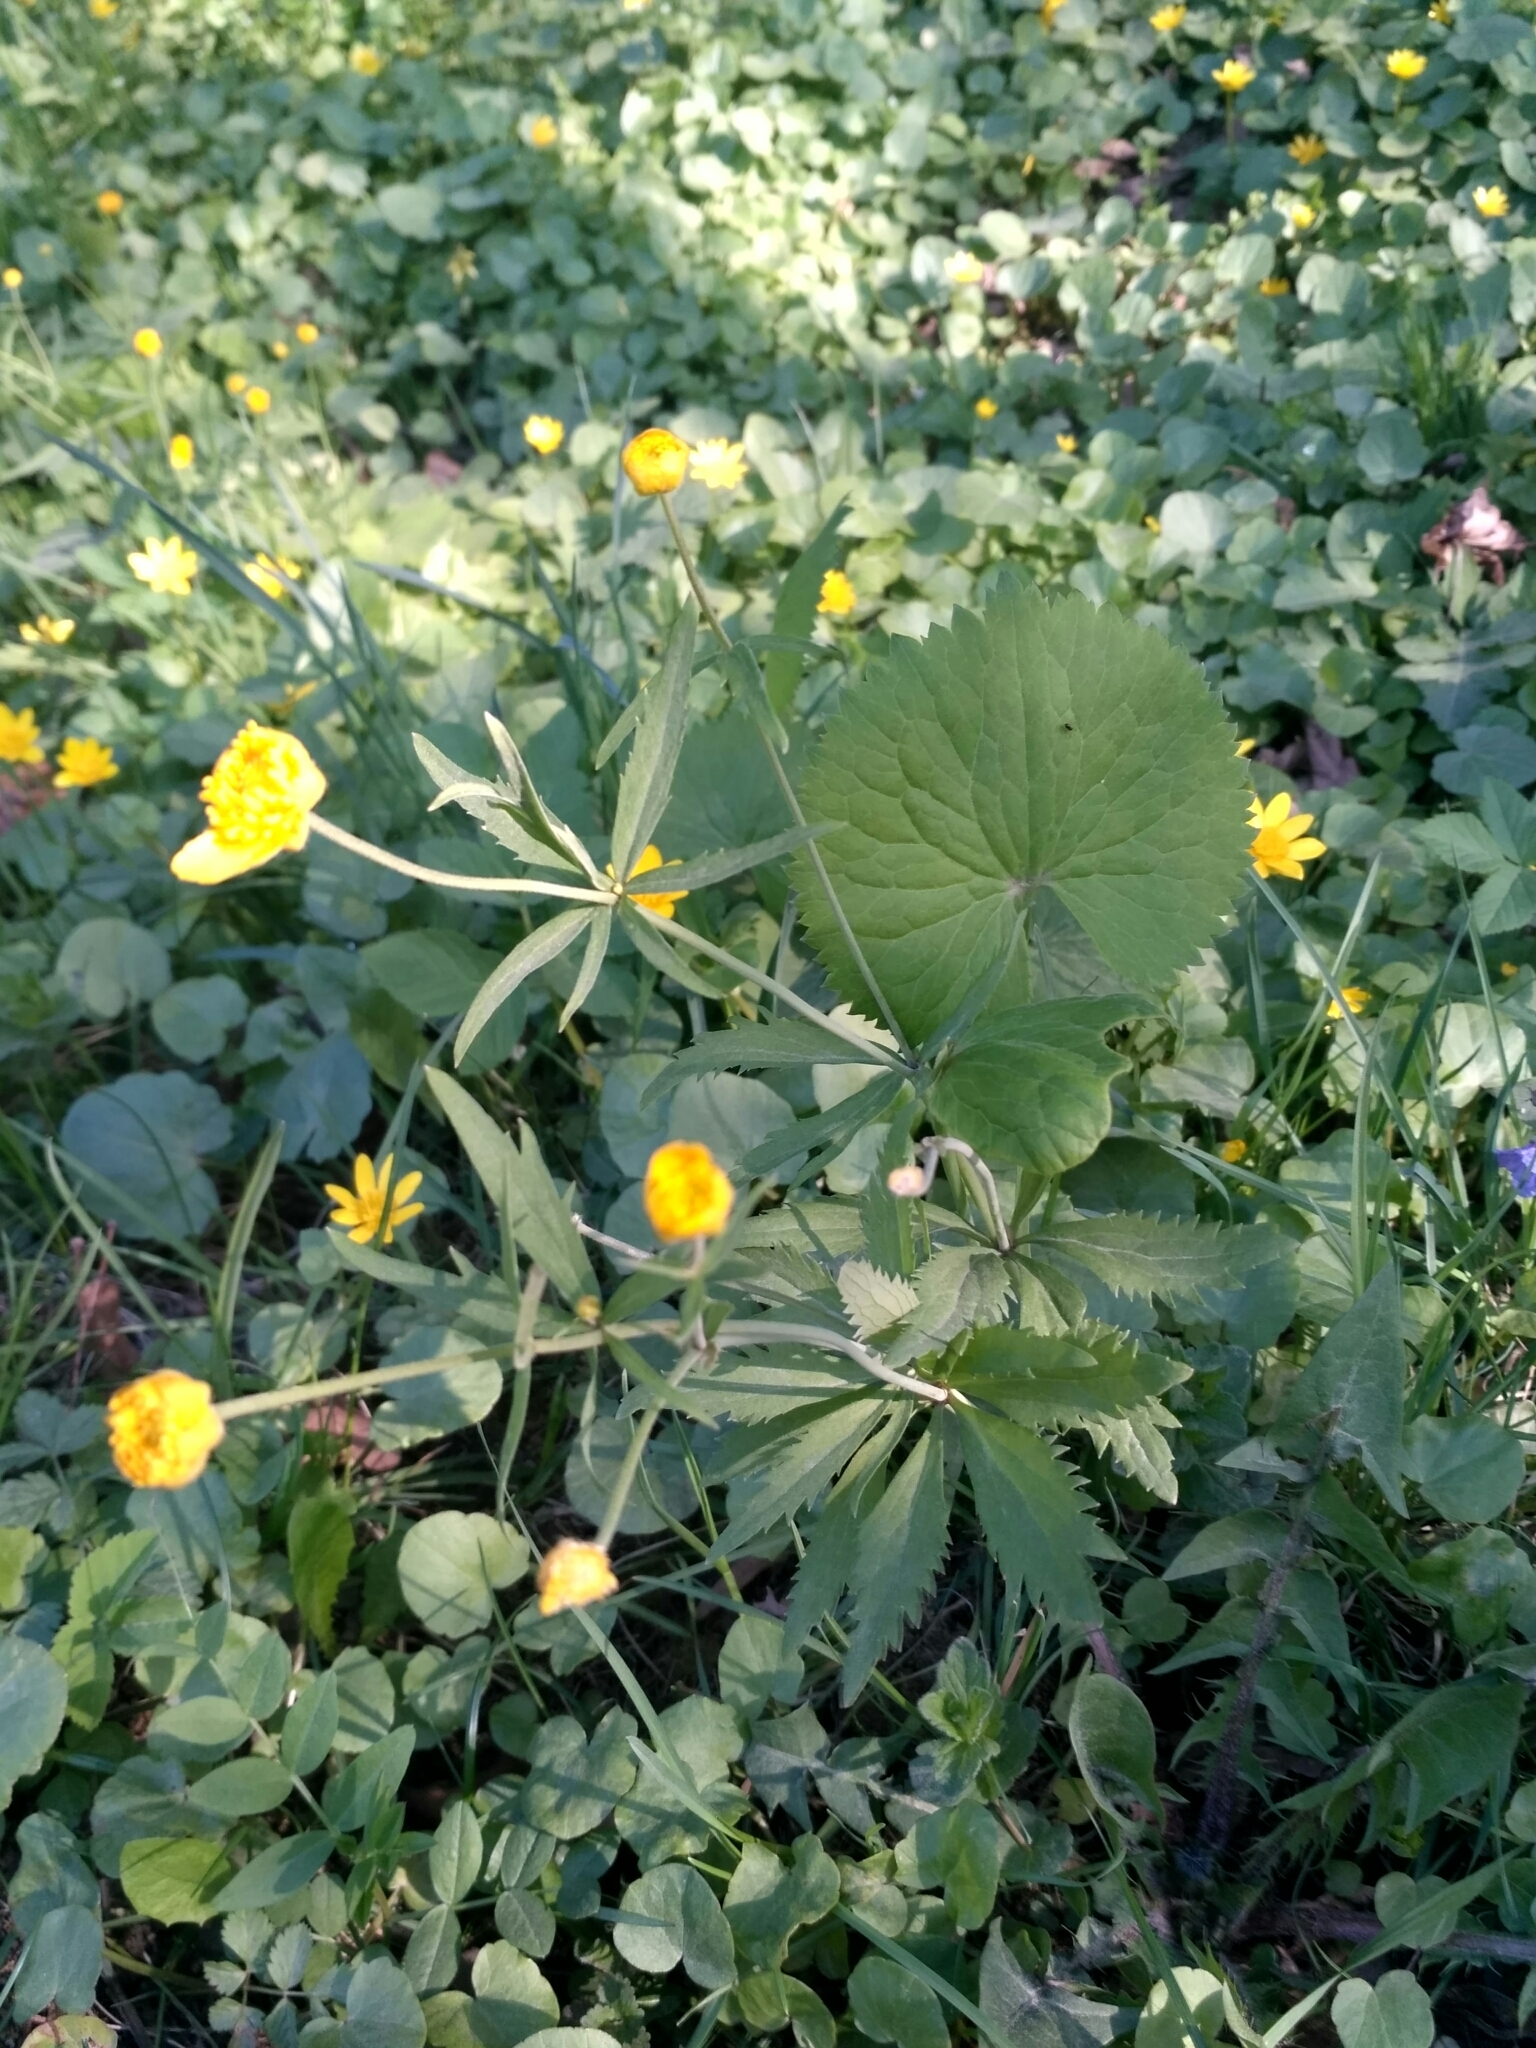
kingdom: Plantae
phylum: Tracheophyta
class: Magnoliopsida
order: Ranunculales
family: Ranunculaceae
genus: Ranunculus
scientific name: Ranunculus cassubicus
